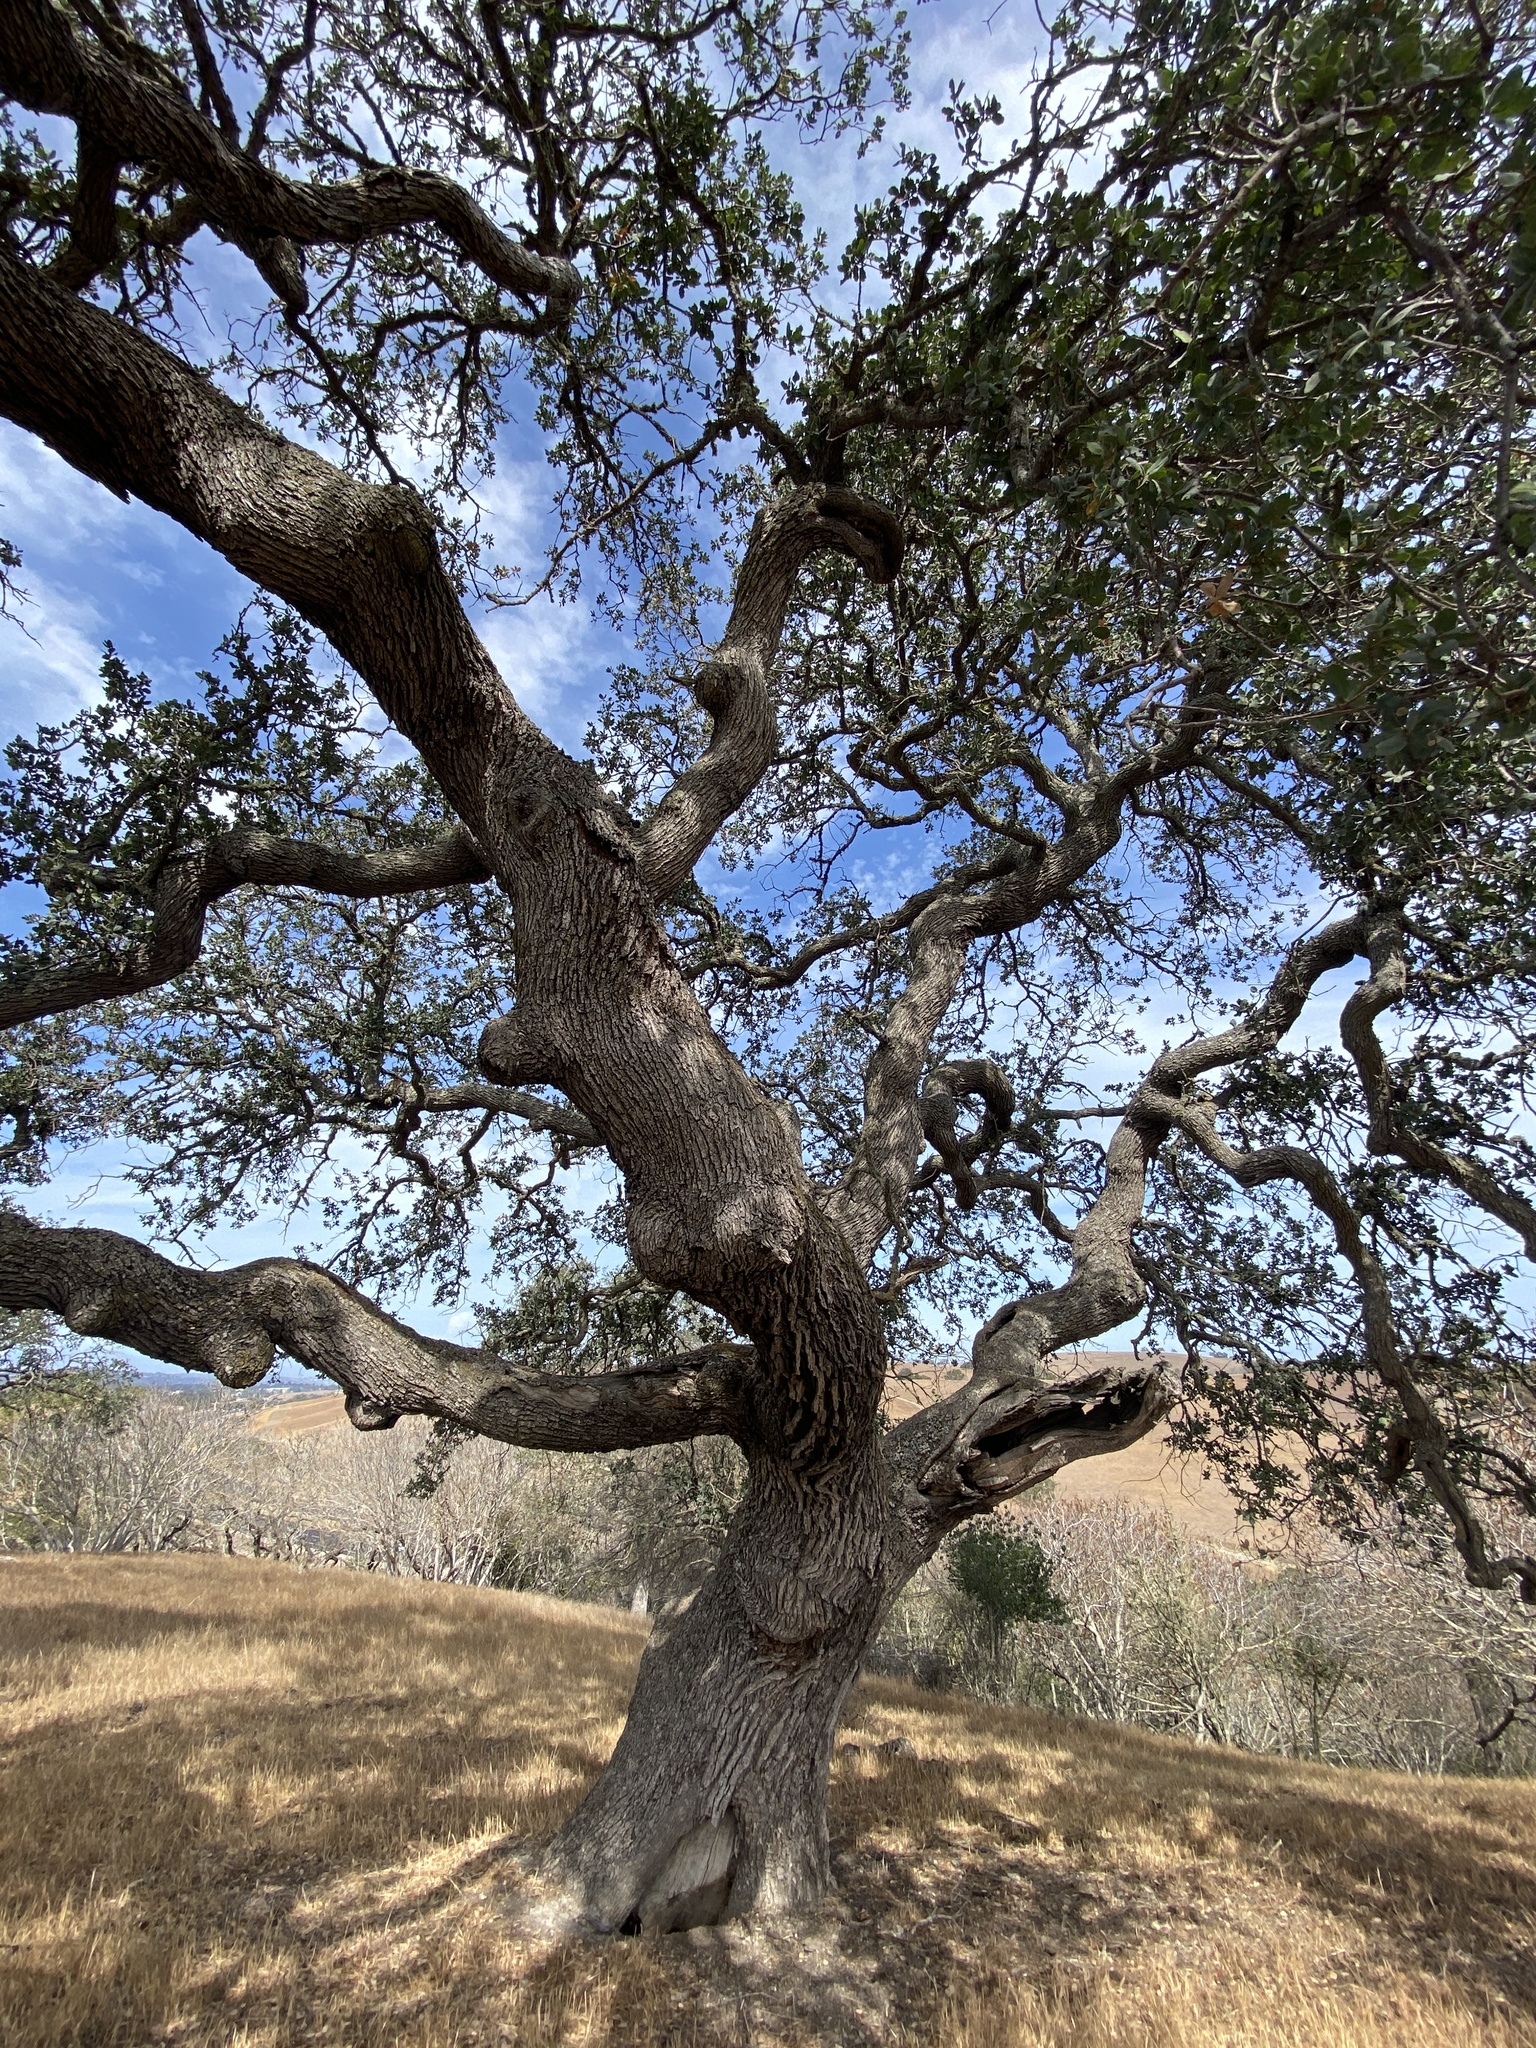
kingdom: Plantae
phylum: Tracheophyta
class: Magnoliopsida
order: Fagales
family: Fagaceae
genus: Quercus
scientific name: Quercus douglasii
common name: Blue oak
